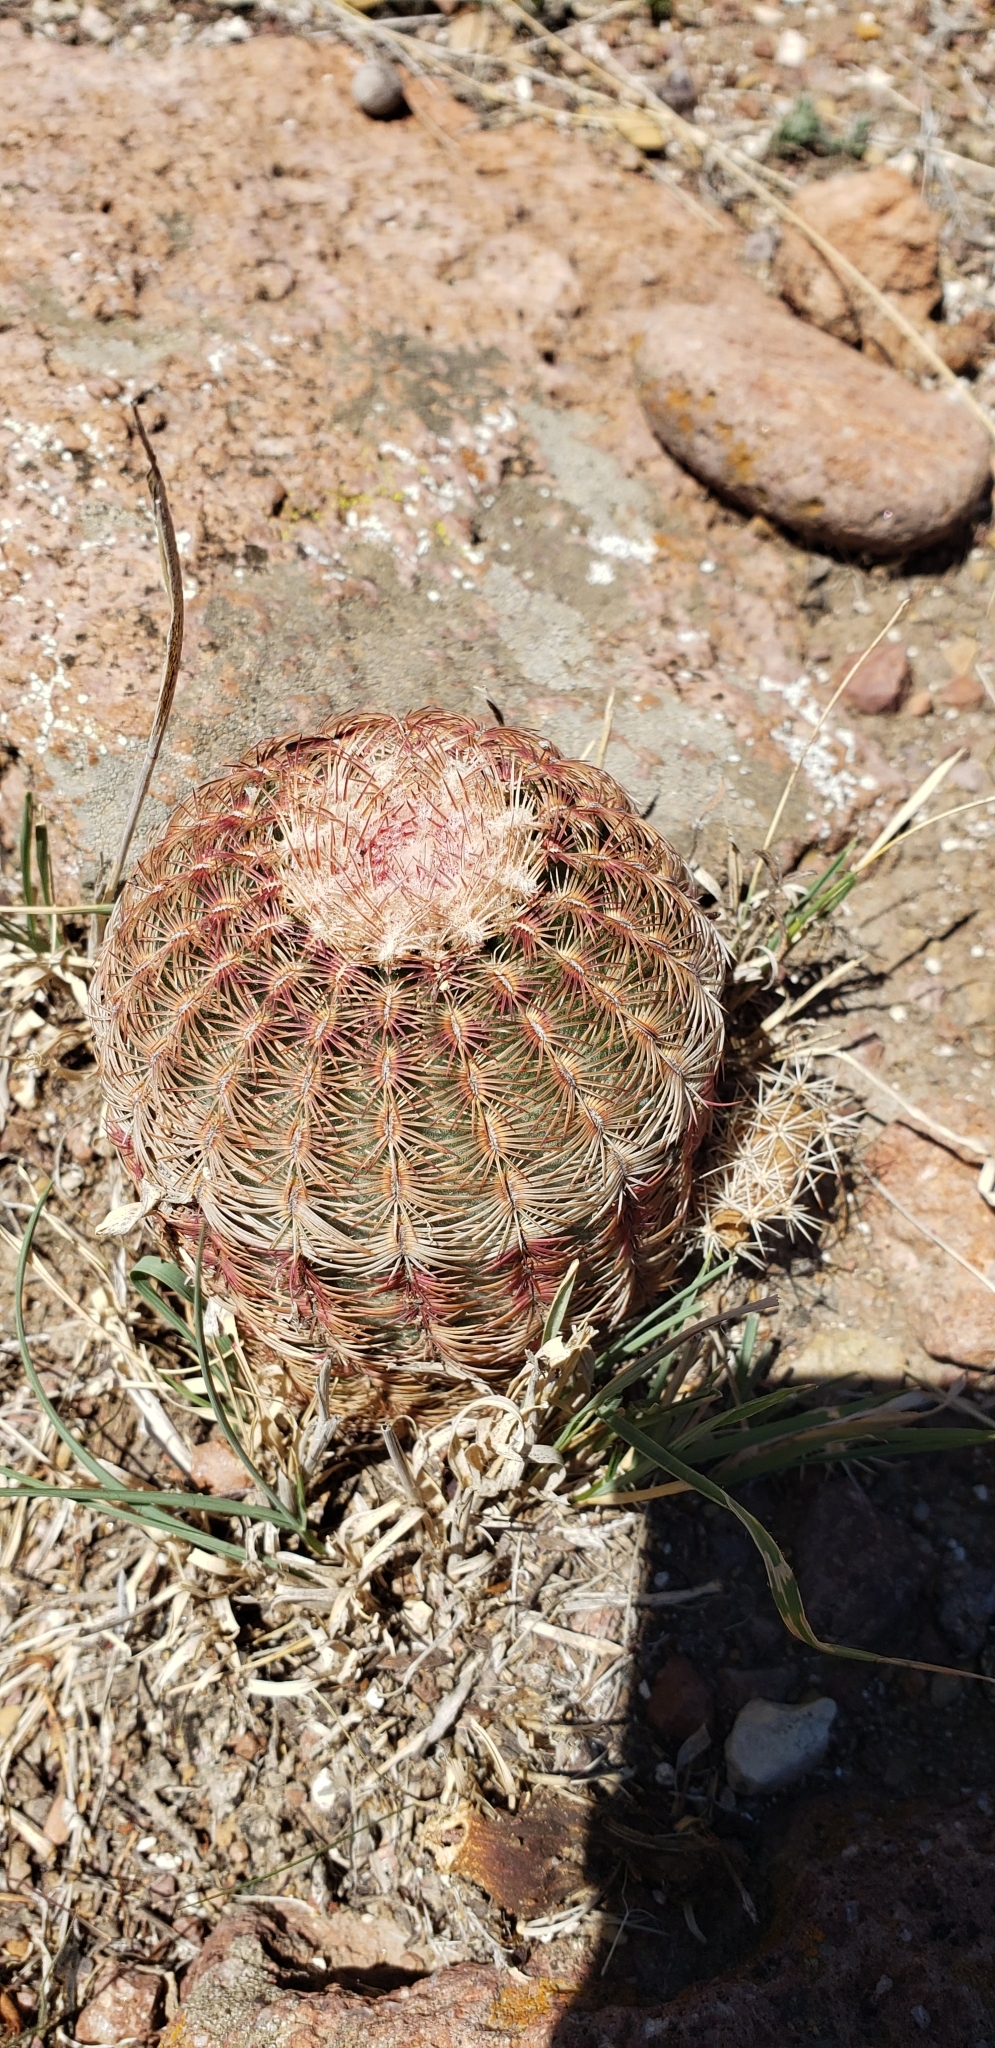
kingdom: Plantae
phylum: Tracheophyta
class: Magnoliopsida
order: Caryophyllales
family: Cactaceae
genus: Echinocereus
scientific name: Echinocereus pectinatus
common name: Rainbow cactus
